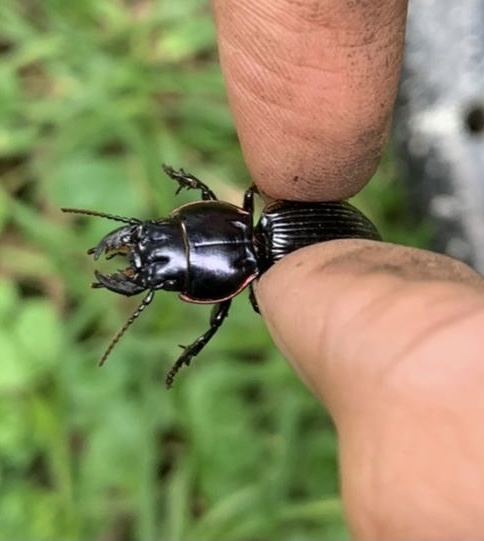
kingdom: Animalia
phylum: Arthropoda
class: Insecta
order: Coleoptera
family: Carabidae
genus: Pasimachus
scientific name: Pasimachus intermedius
